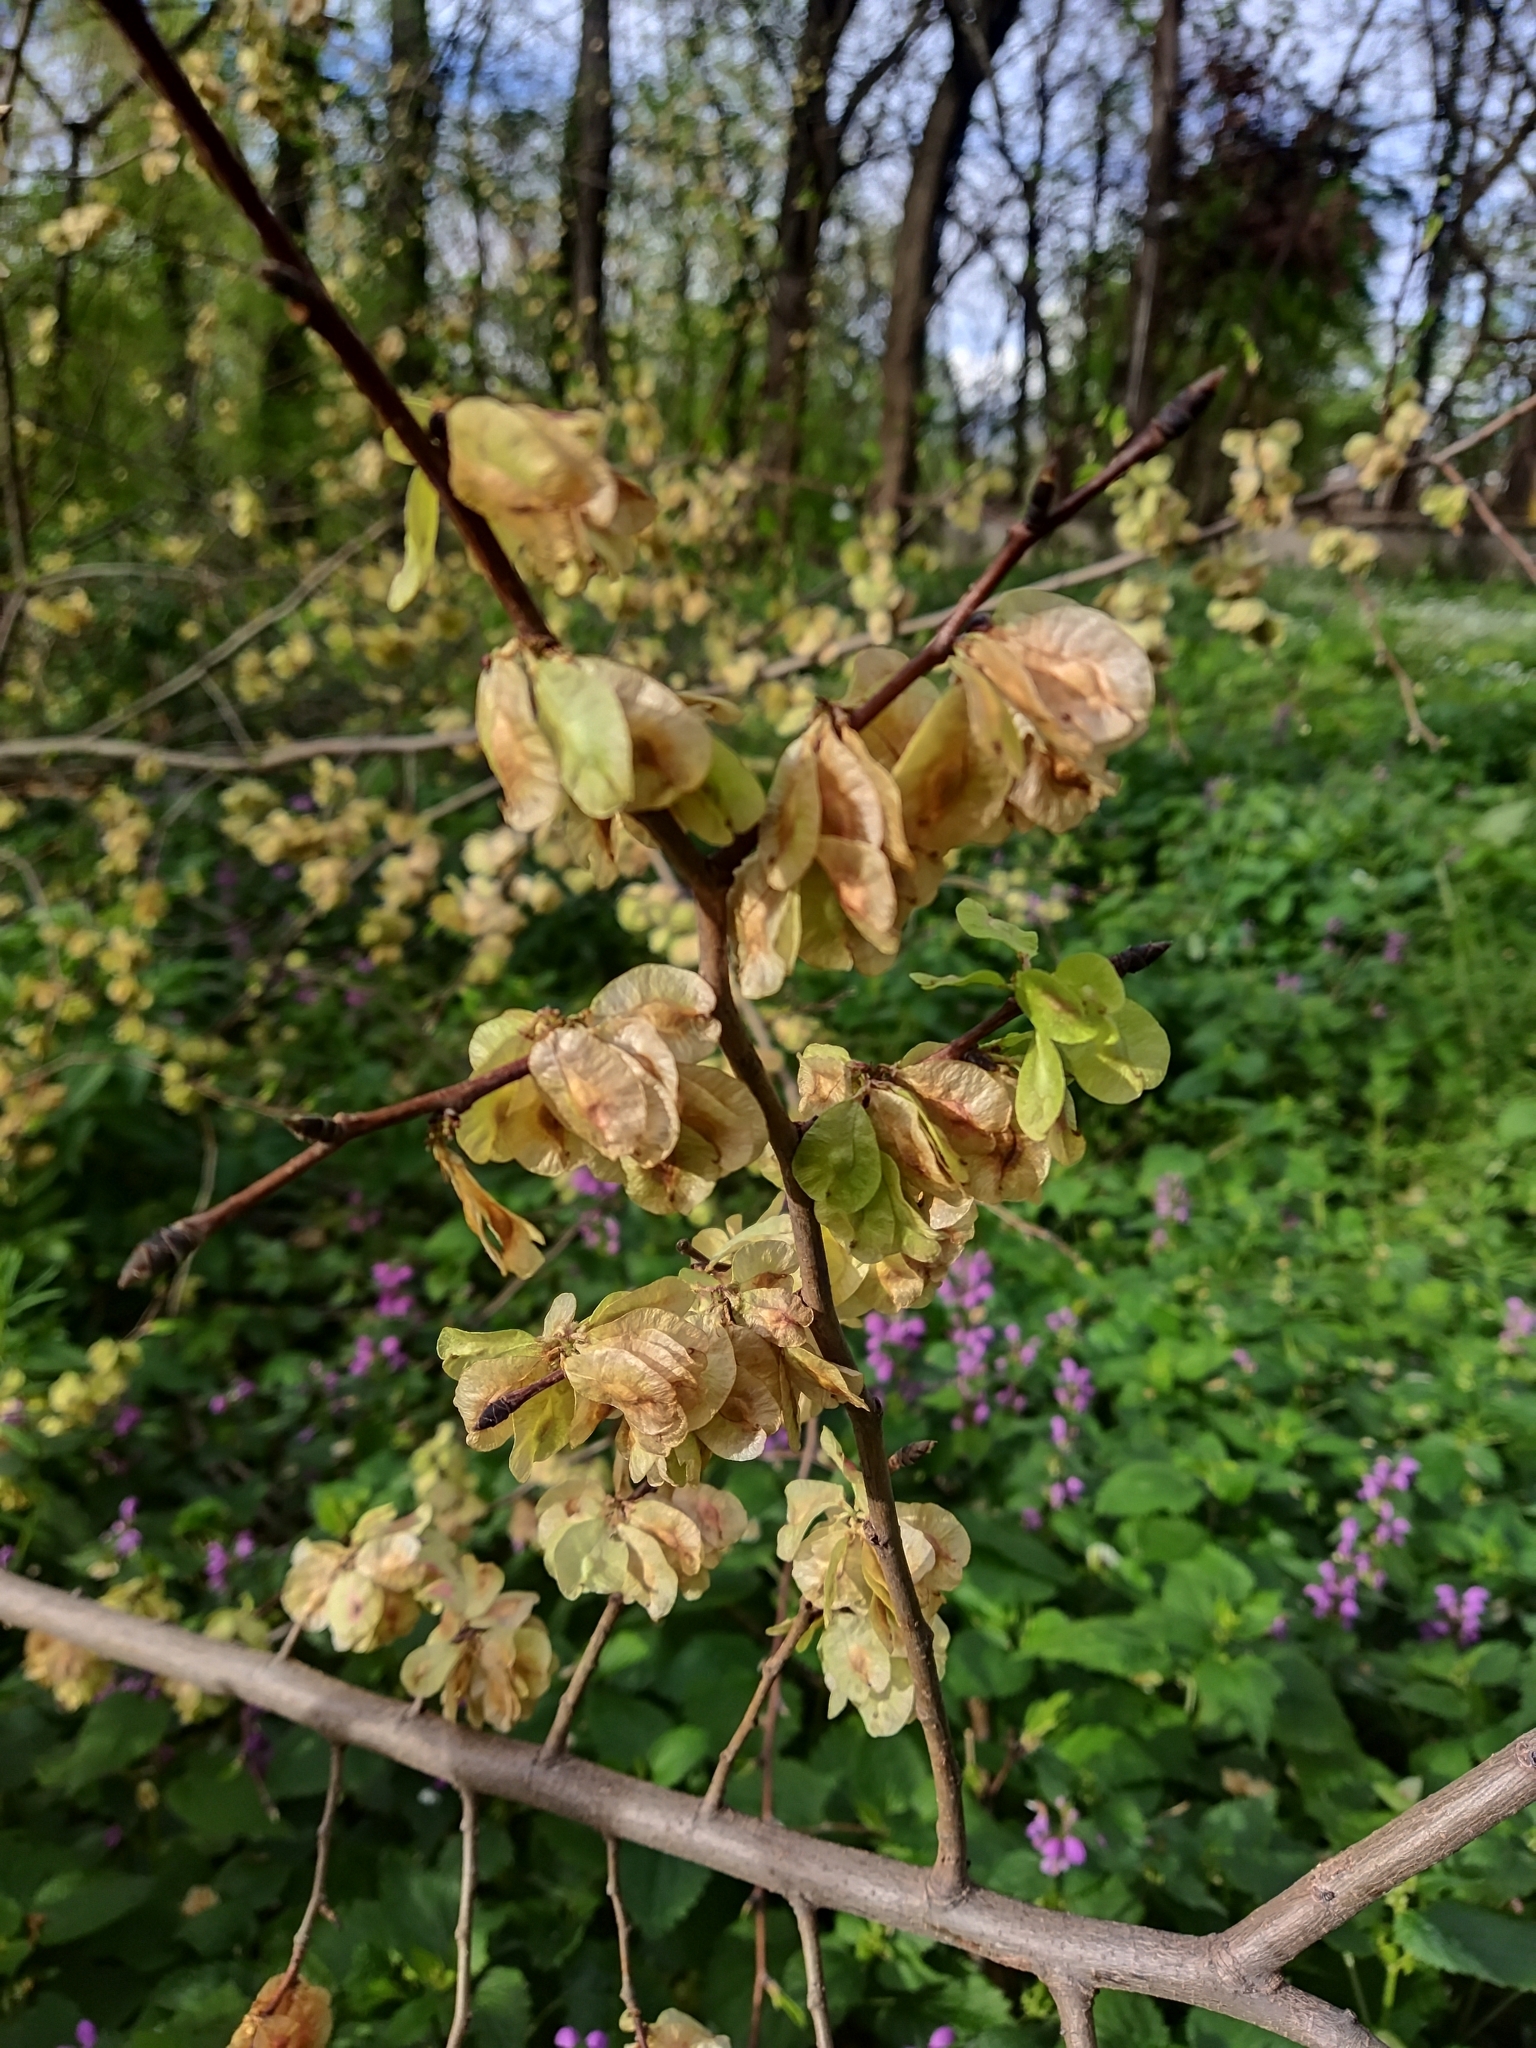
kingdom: Plantae
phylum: Tracheophyta
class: Magnoliopsida
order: Rosales
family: Ulmaceae
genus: Ulmus
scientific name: Ulmus minor
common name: Small-leaved elm
